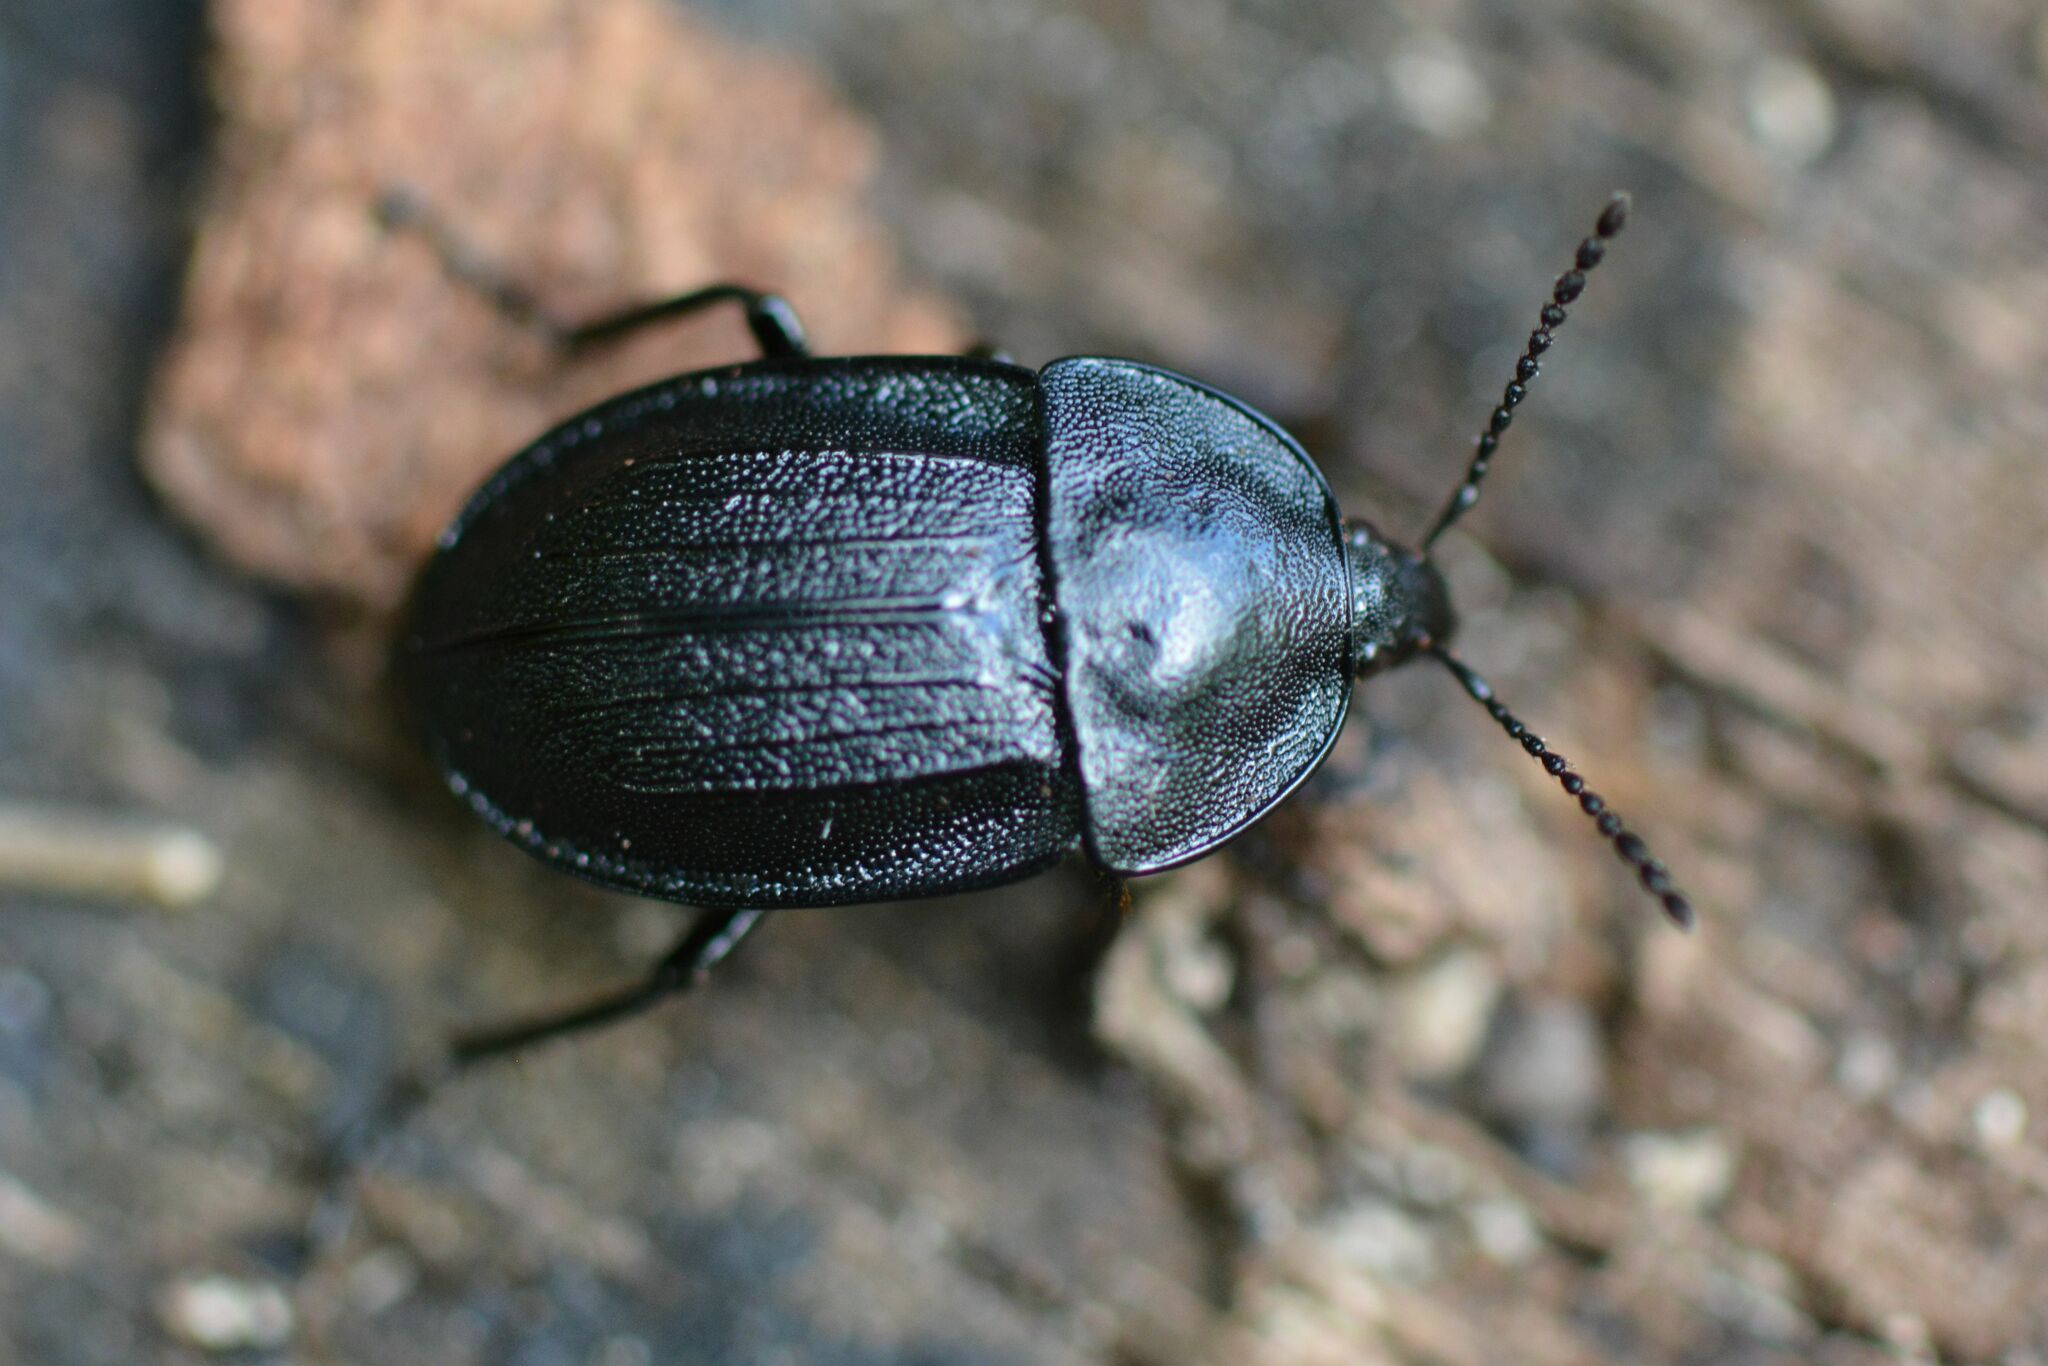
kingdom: Animalia
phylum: Arthropoda
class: Insecta
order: Coleoptera
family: Staphylinidae
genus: Silpha
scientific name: Silpha atrata
